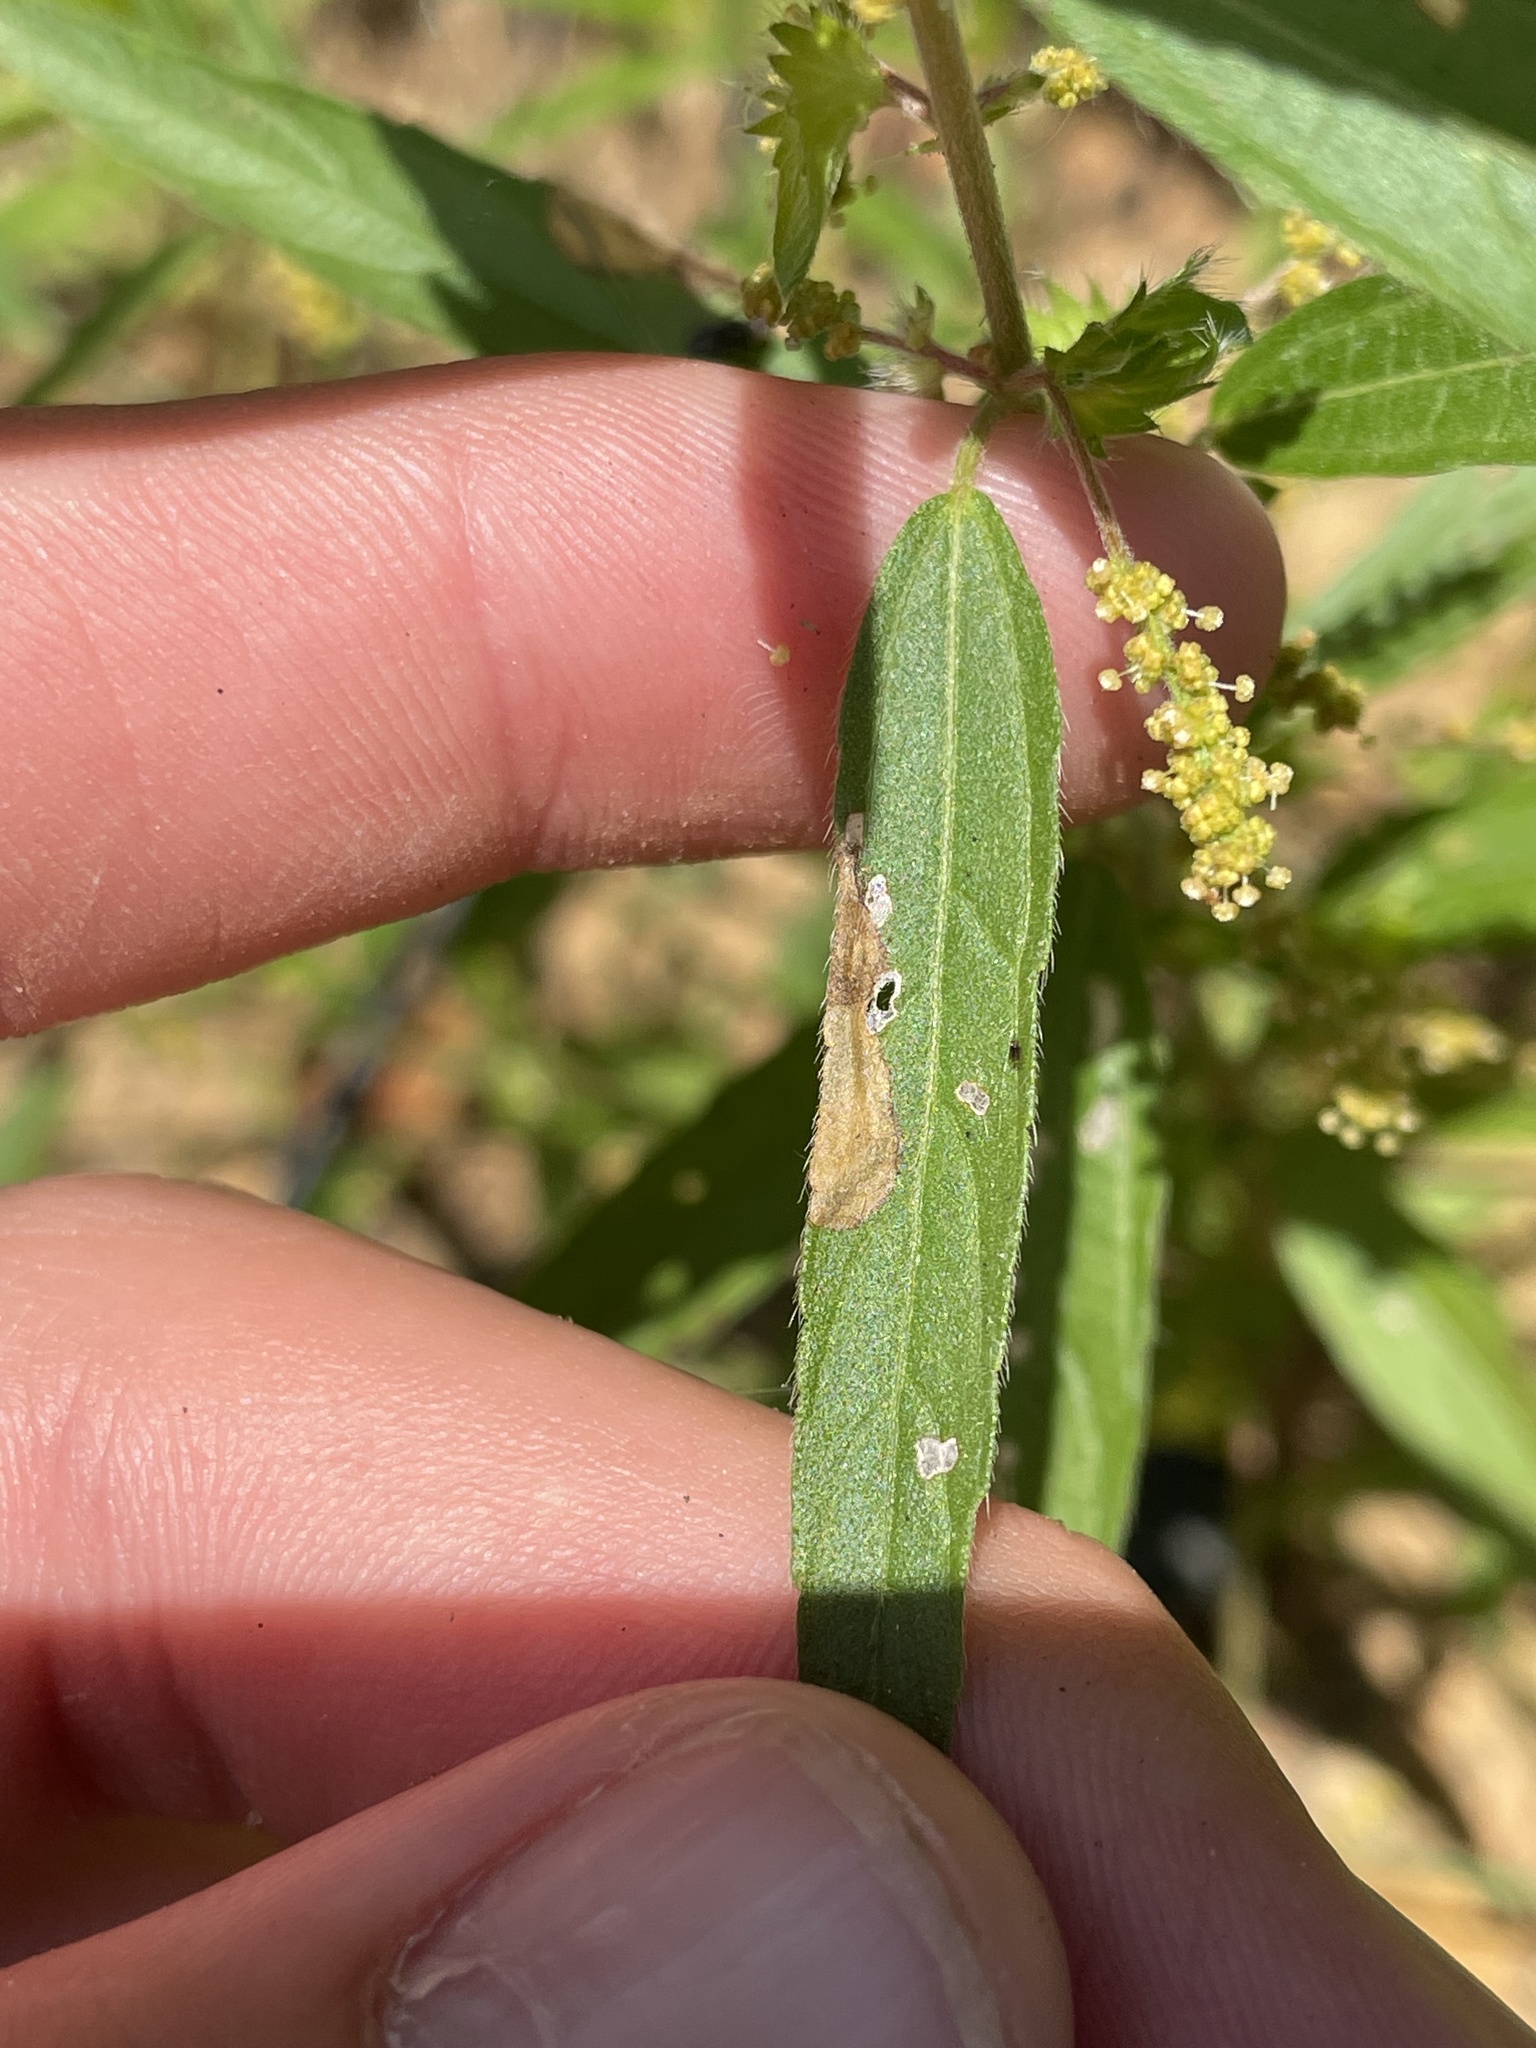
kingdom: Animalia
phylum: Arthropoda
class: Insecta
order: Coleoptera
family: Buprestidae
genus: Pachyschelus
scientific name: Pachyschelus purpureus
